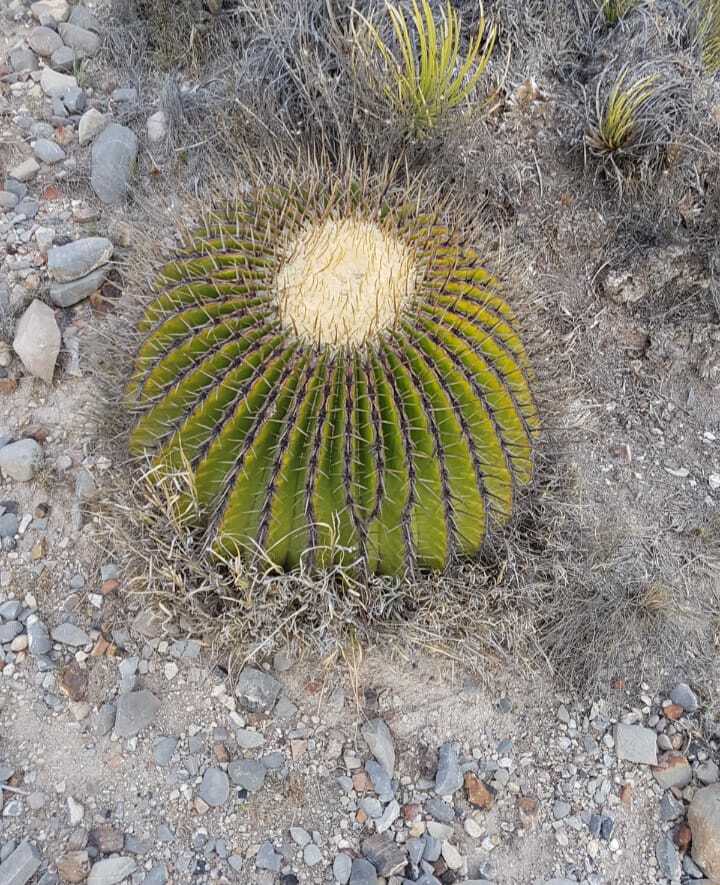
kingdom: Plantae
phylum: Tracheophyta
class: Magnoliopsida
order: Caryophyllales
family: Cactaceae
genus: Echinocactus
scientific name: Echinocactus platyacanthus
